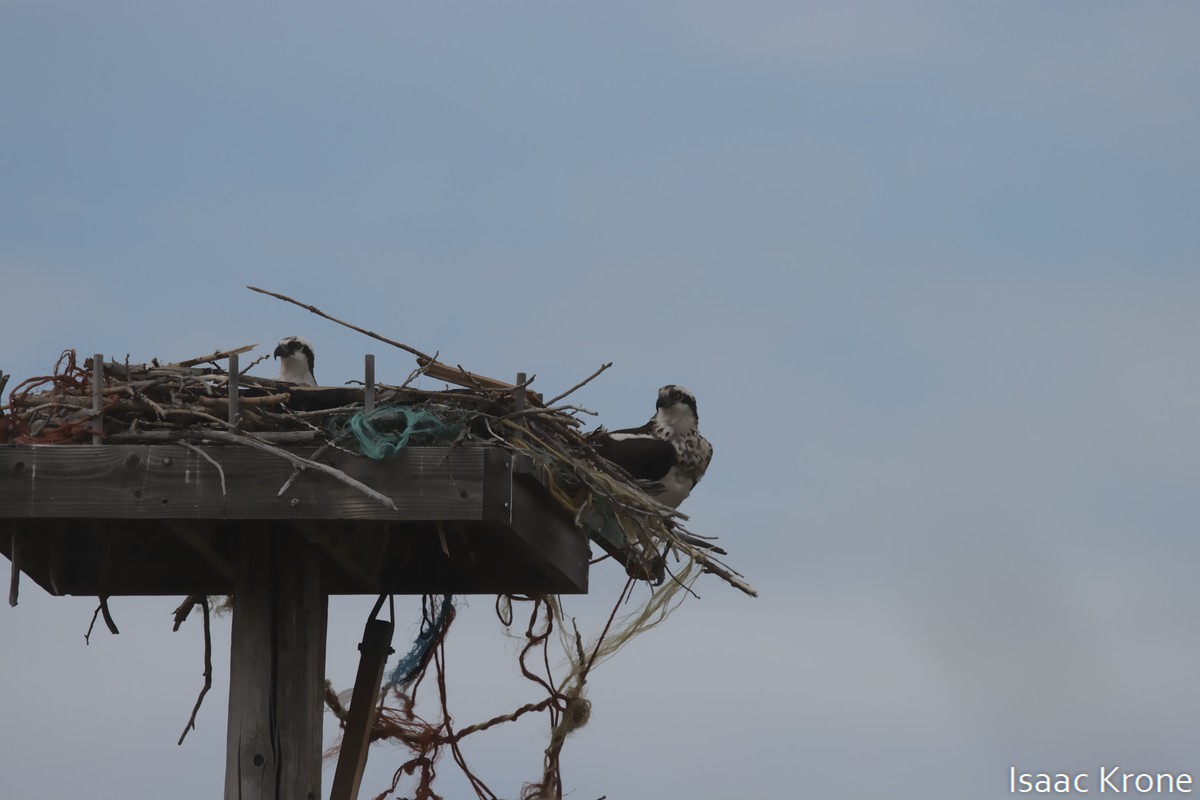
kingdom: Animalia
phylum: Chordata
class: Aves
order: Accipitriformes
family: Pandionidae
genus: Pandion
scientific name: Pandion haliaetus
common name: Osprey
